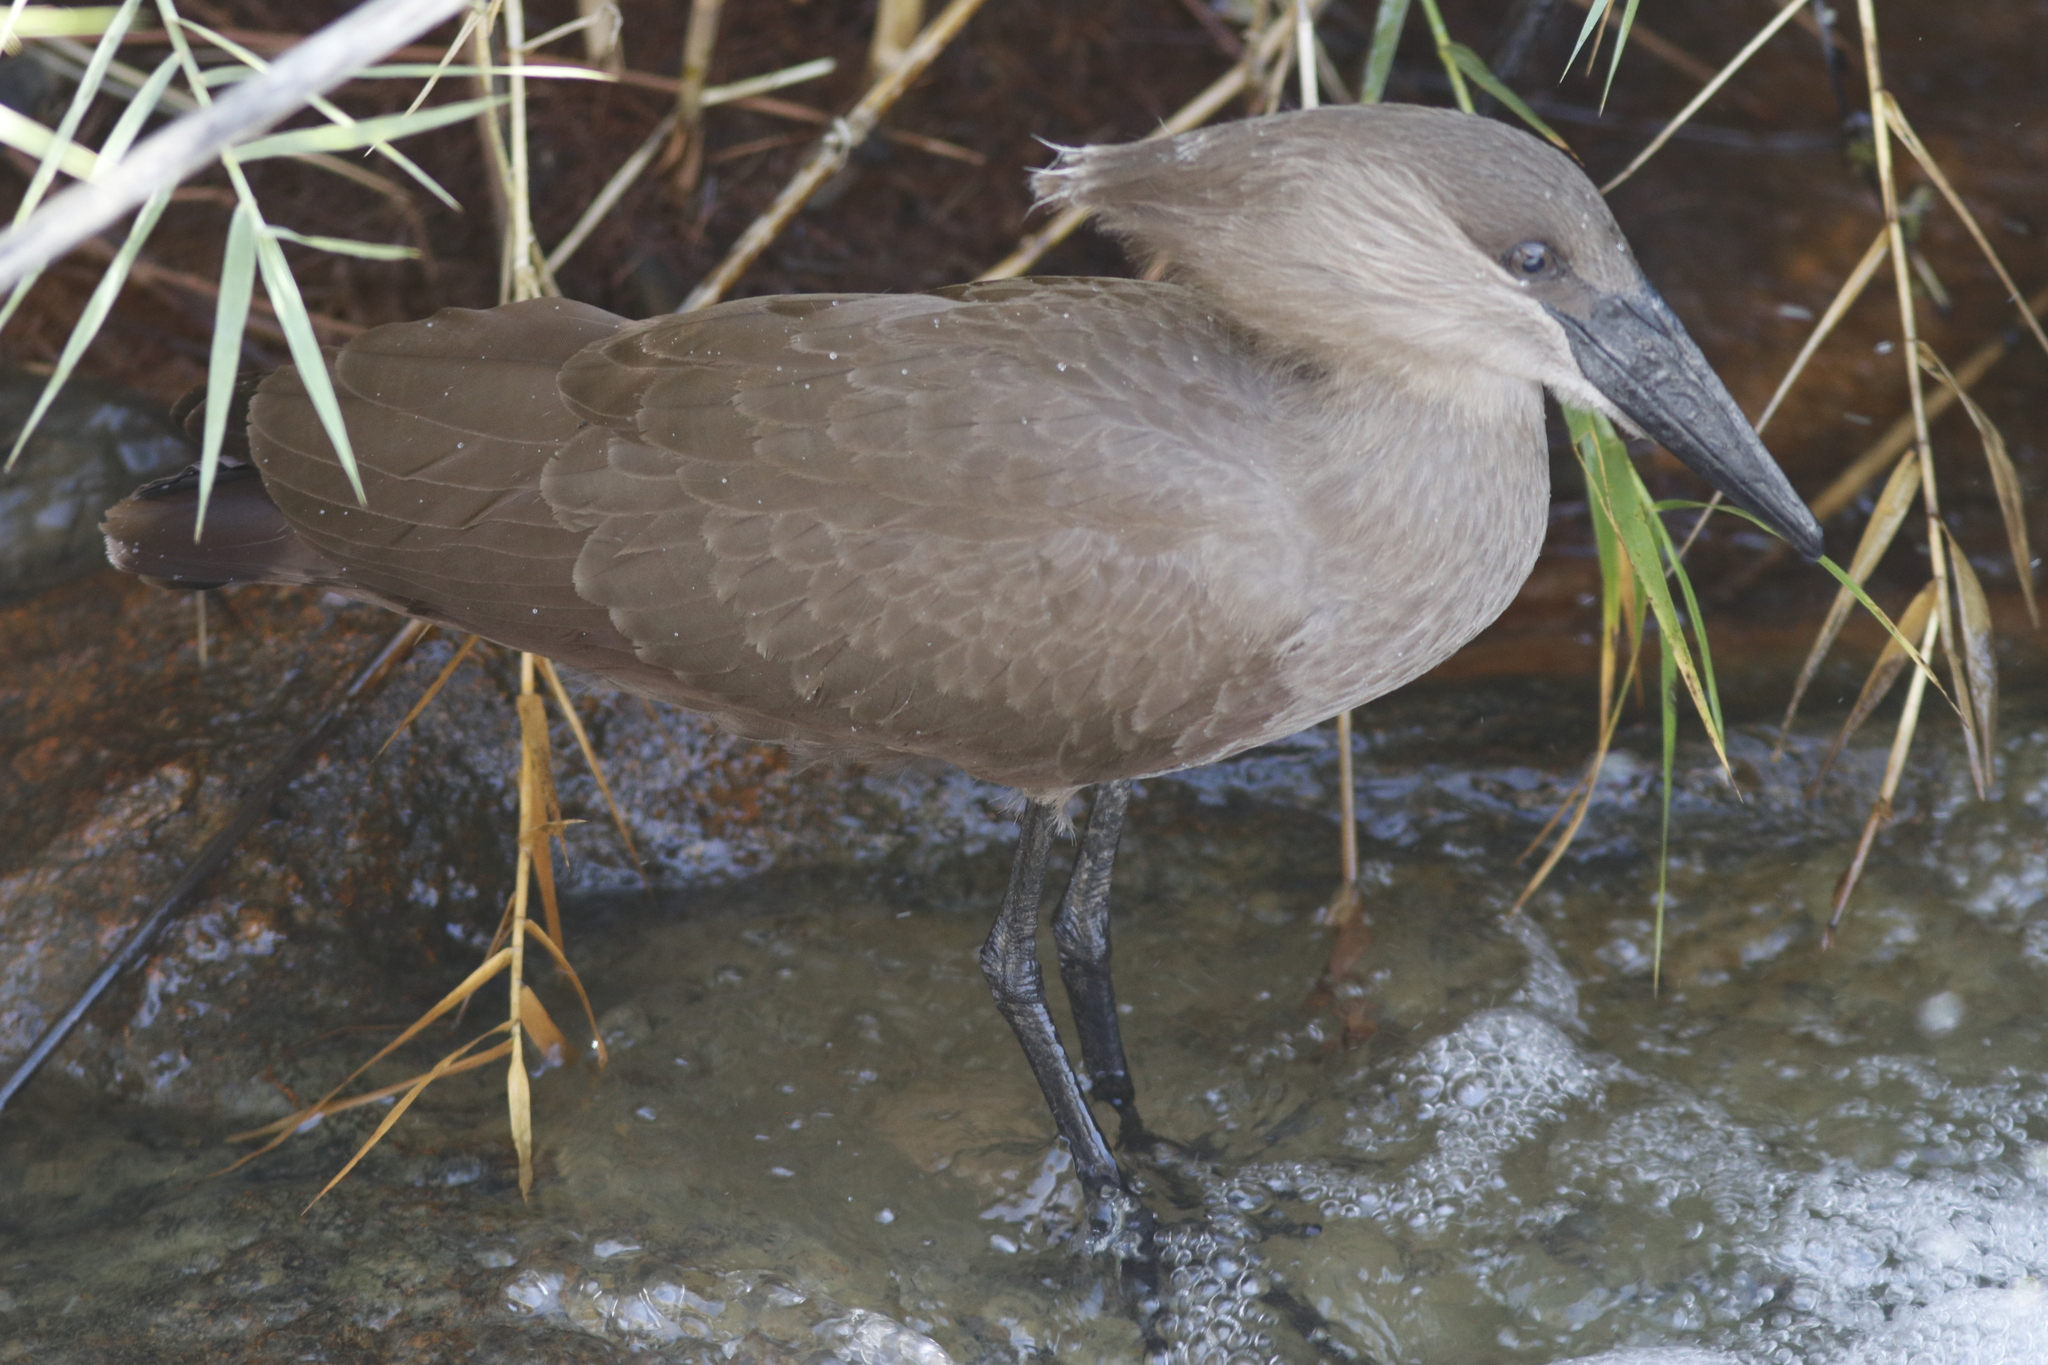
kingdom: Animalia
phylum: Chordata
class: Aves
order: Pelecaniformes
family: Scopidae
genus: Scopus
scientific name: Scopus umbretta
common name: Hamerkop
